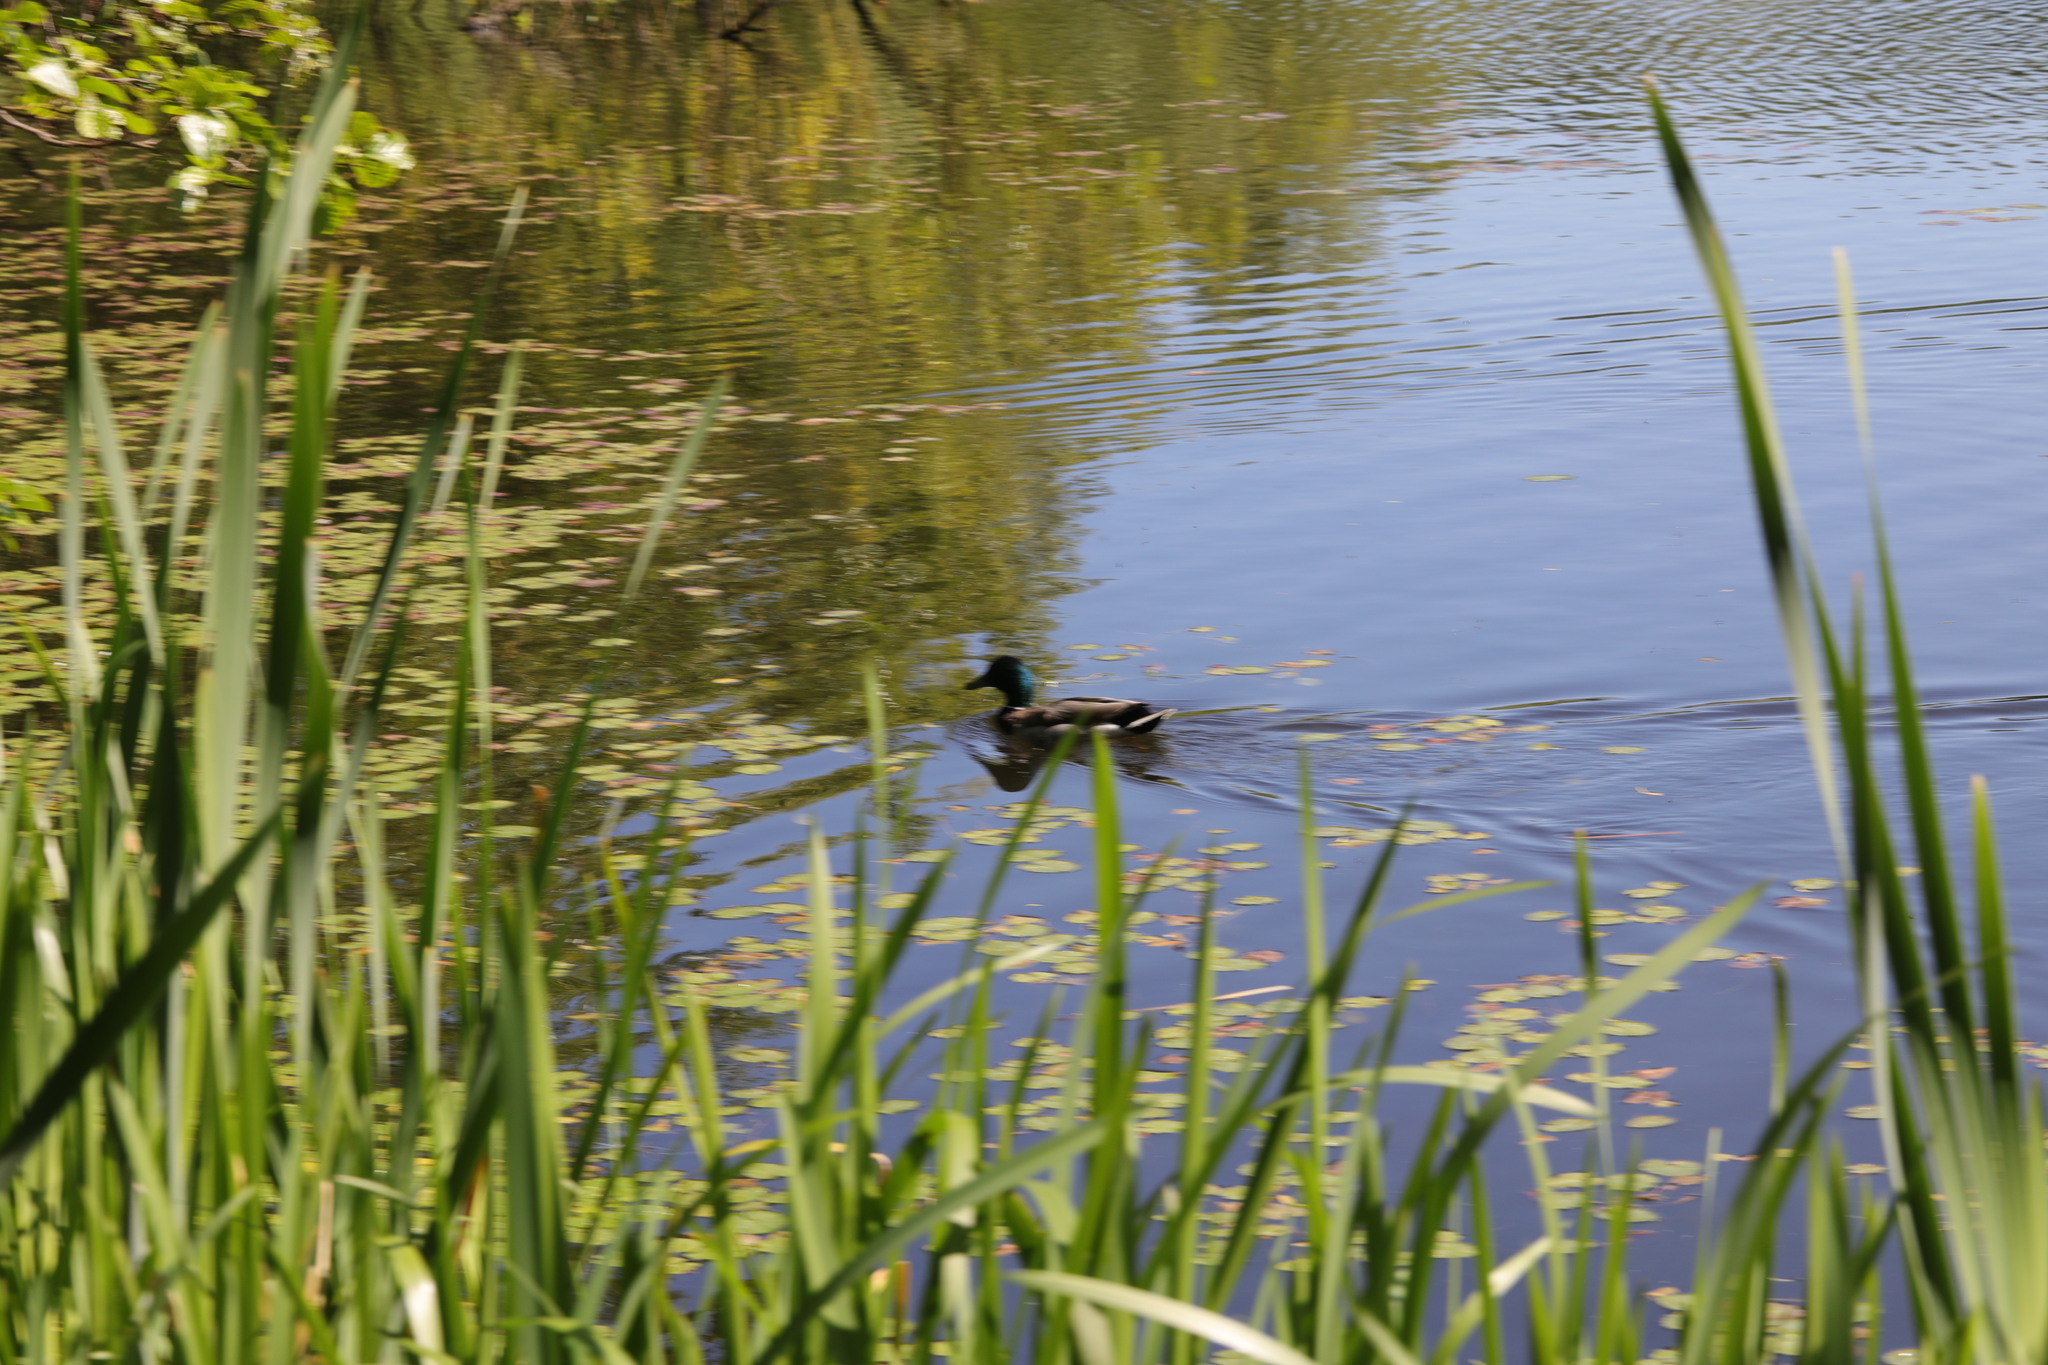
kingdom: Animalia
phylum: Chordata
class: Aves
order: Anseriformes
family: Anatidae
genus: Anas
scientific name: Anas platyrhynchos
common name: Mallard
